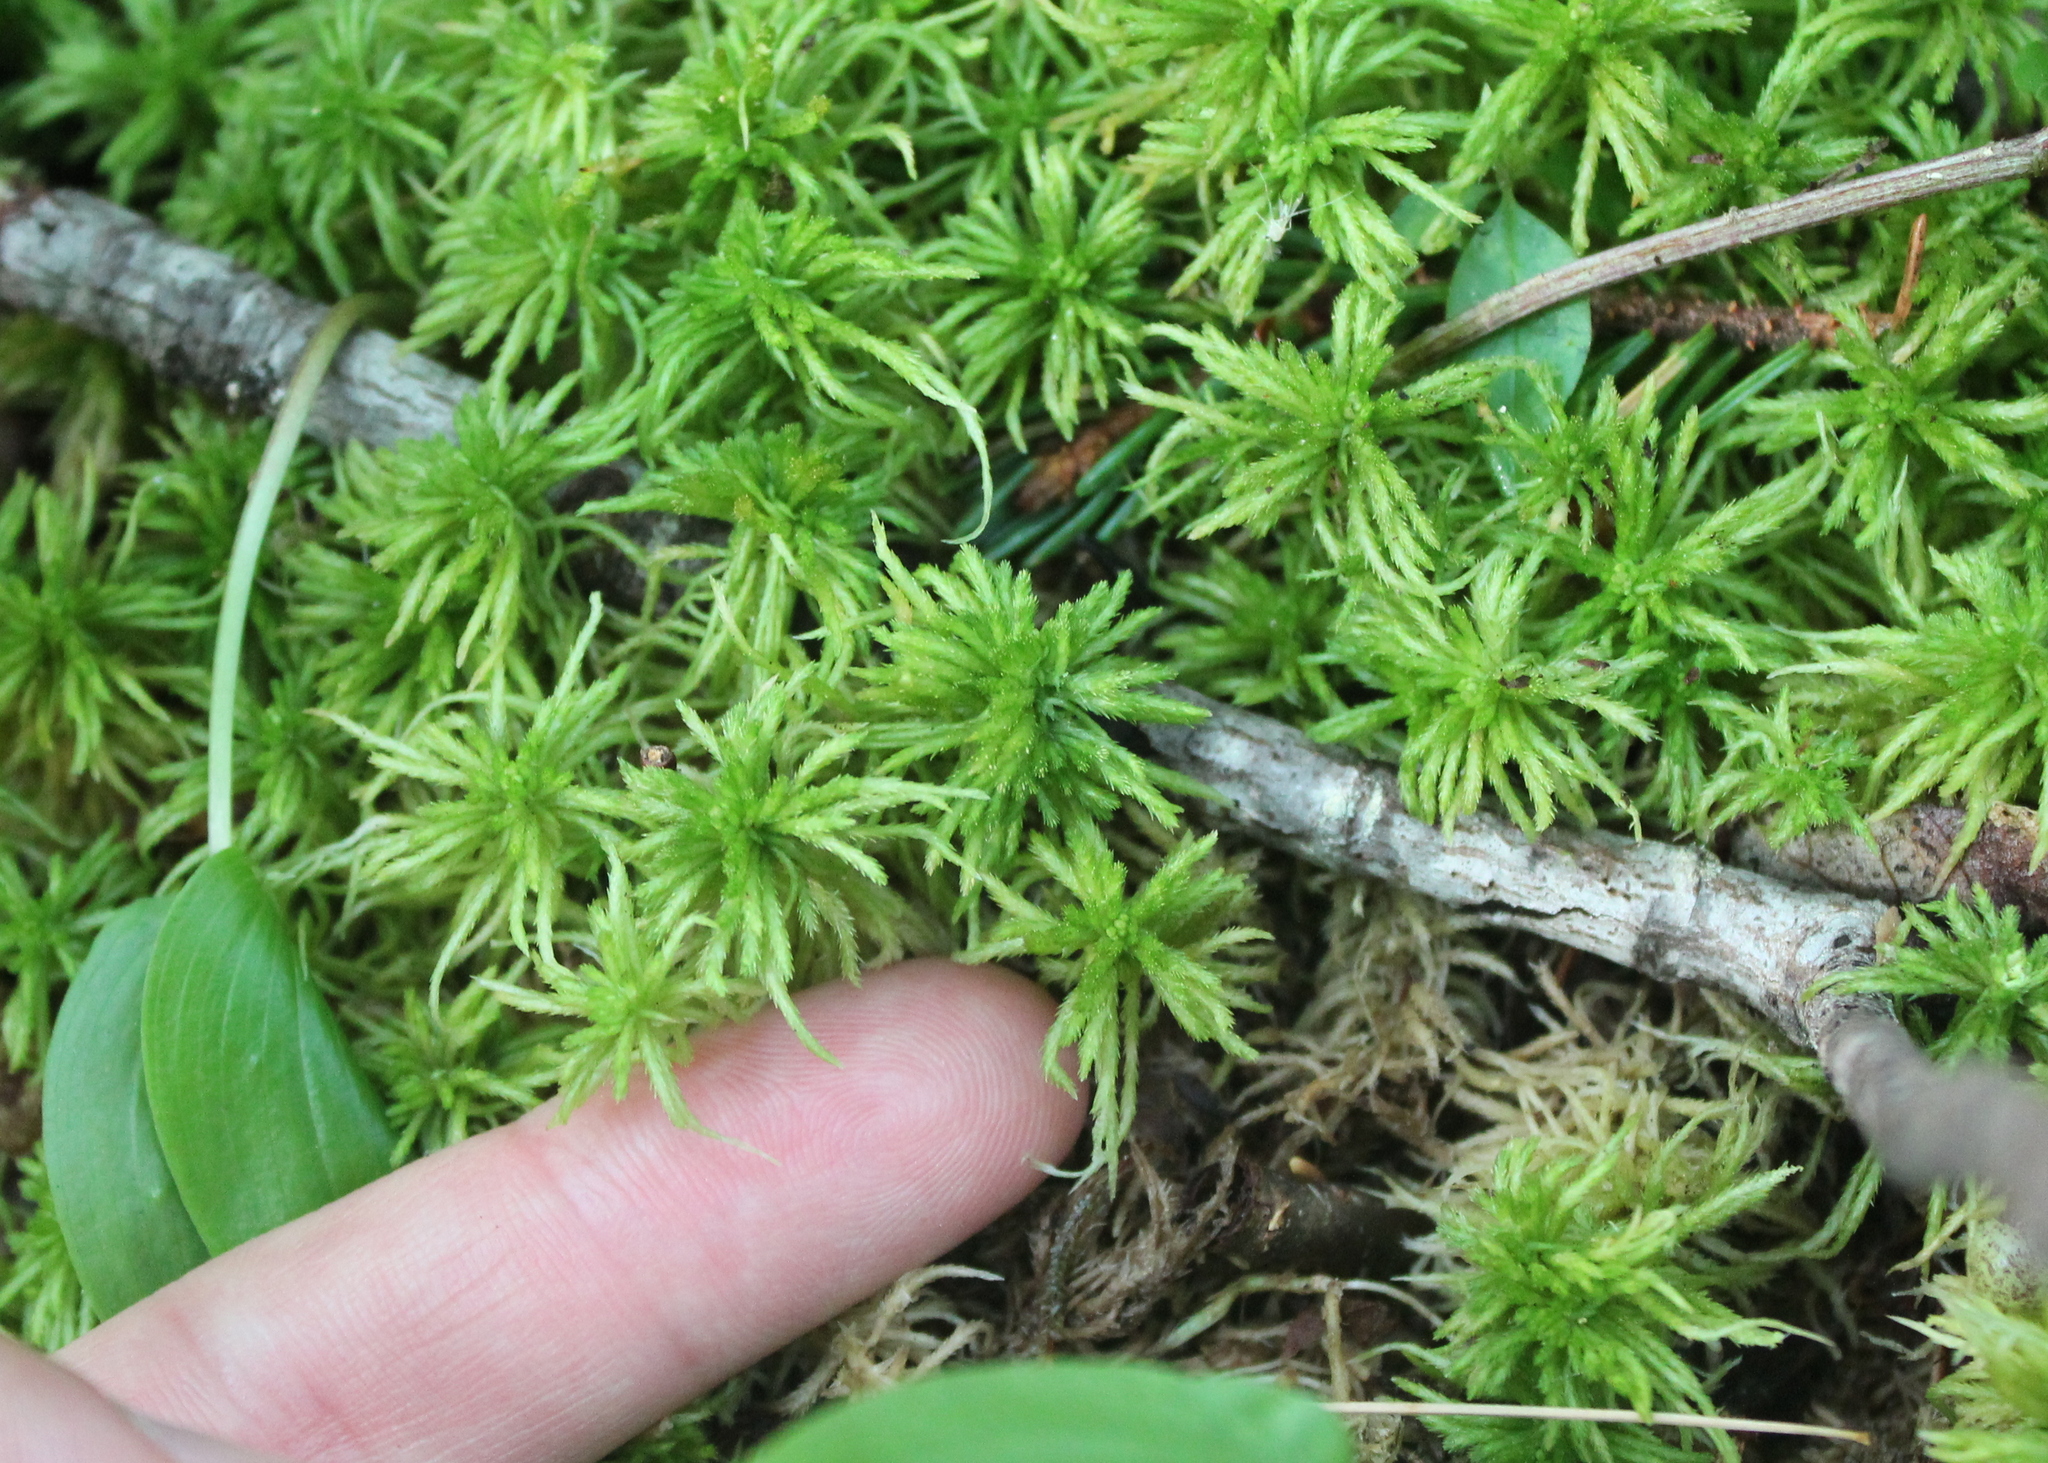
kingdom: Plantae
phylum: Bryophyta
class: Sphagnopsida
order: Sphagnales
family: Sphagnaceae
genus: Sphagnum
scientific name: Sphagnum girgensohnii
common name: Girgensohn's peat moss
